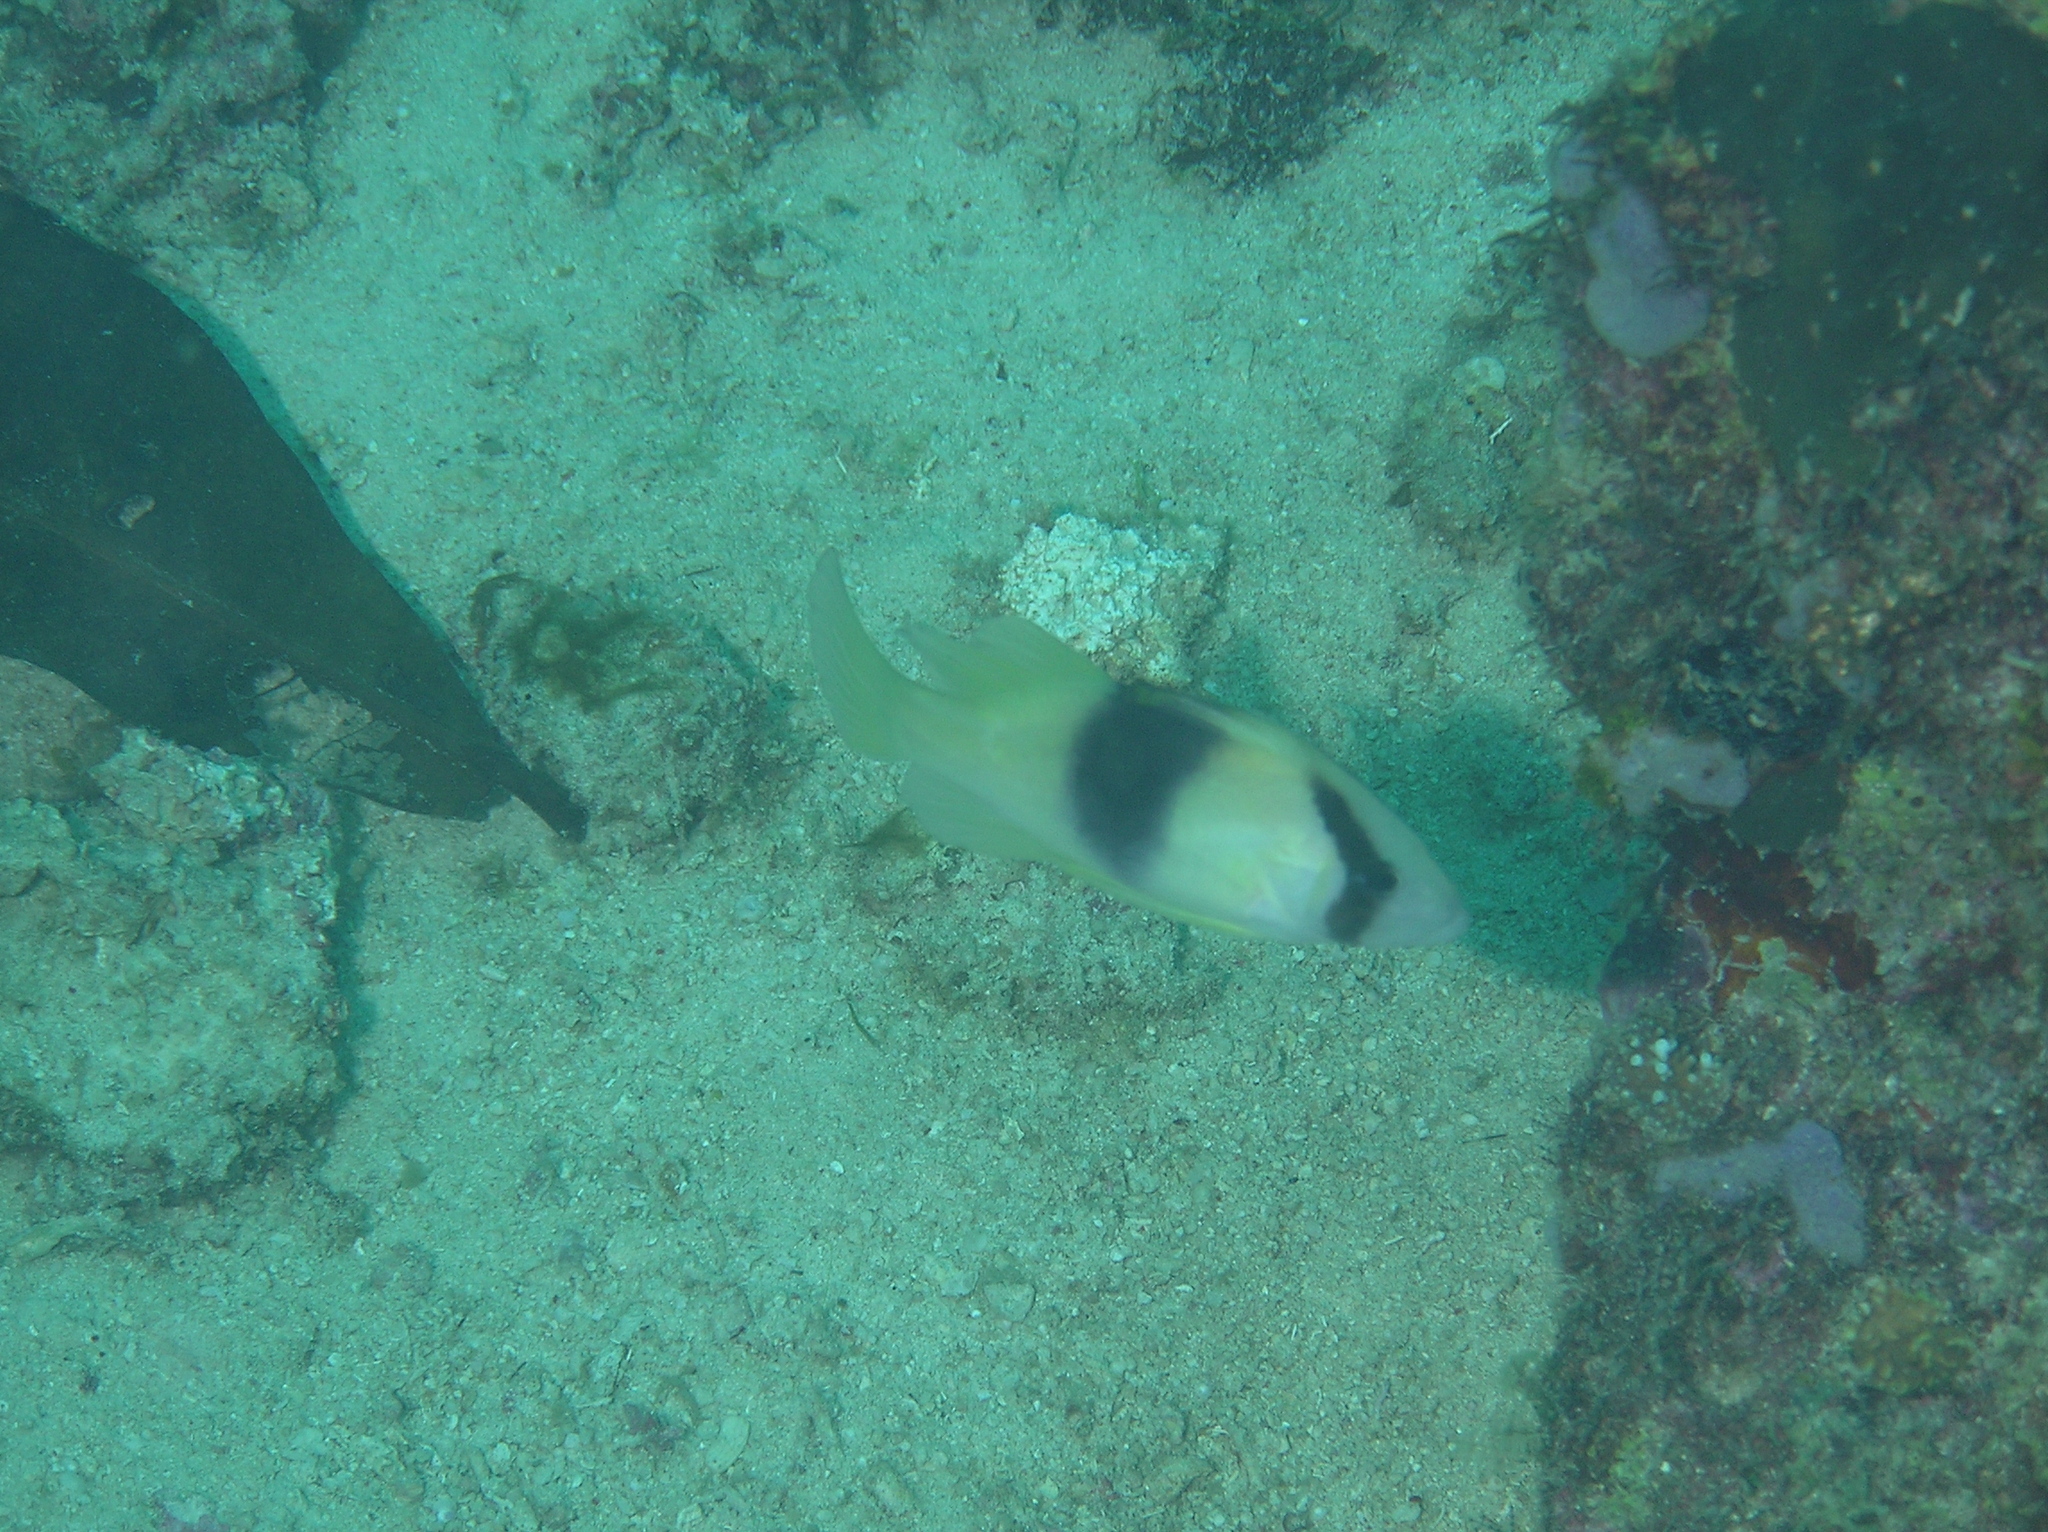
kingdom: Animalia
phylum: Chordata
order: Perciformes
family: Serranidae
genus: Diploprion
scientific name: Diploprion bifasciatum
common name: Barred soapfish
